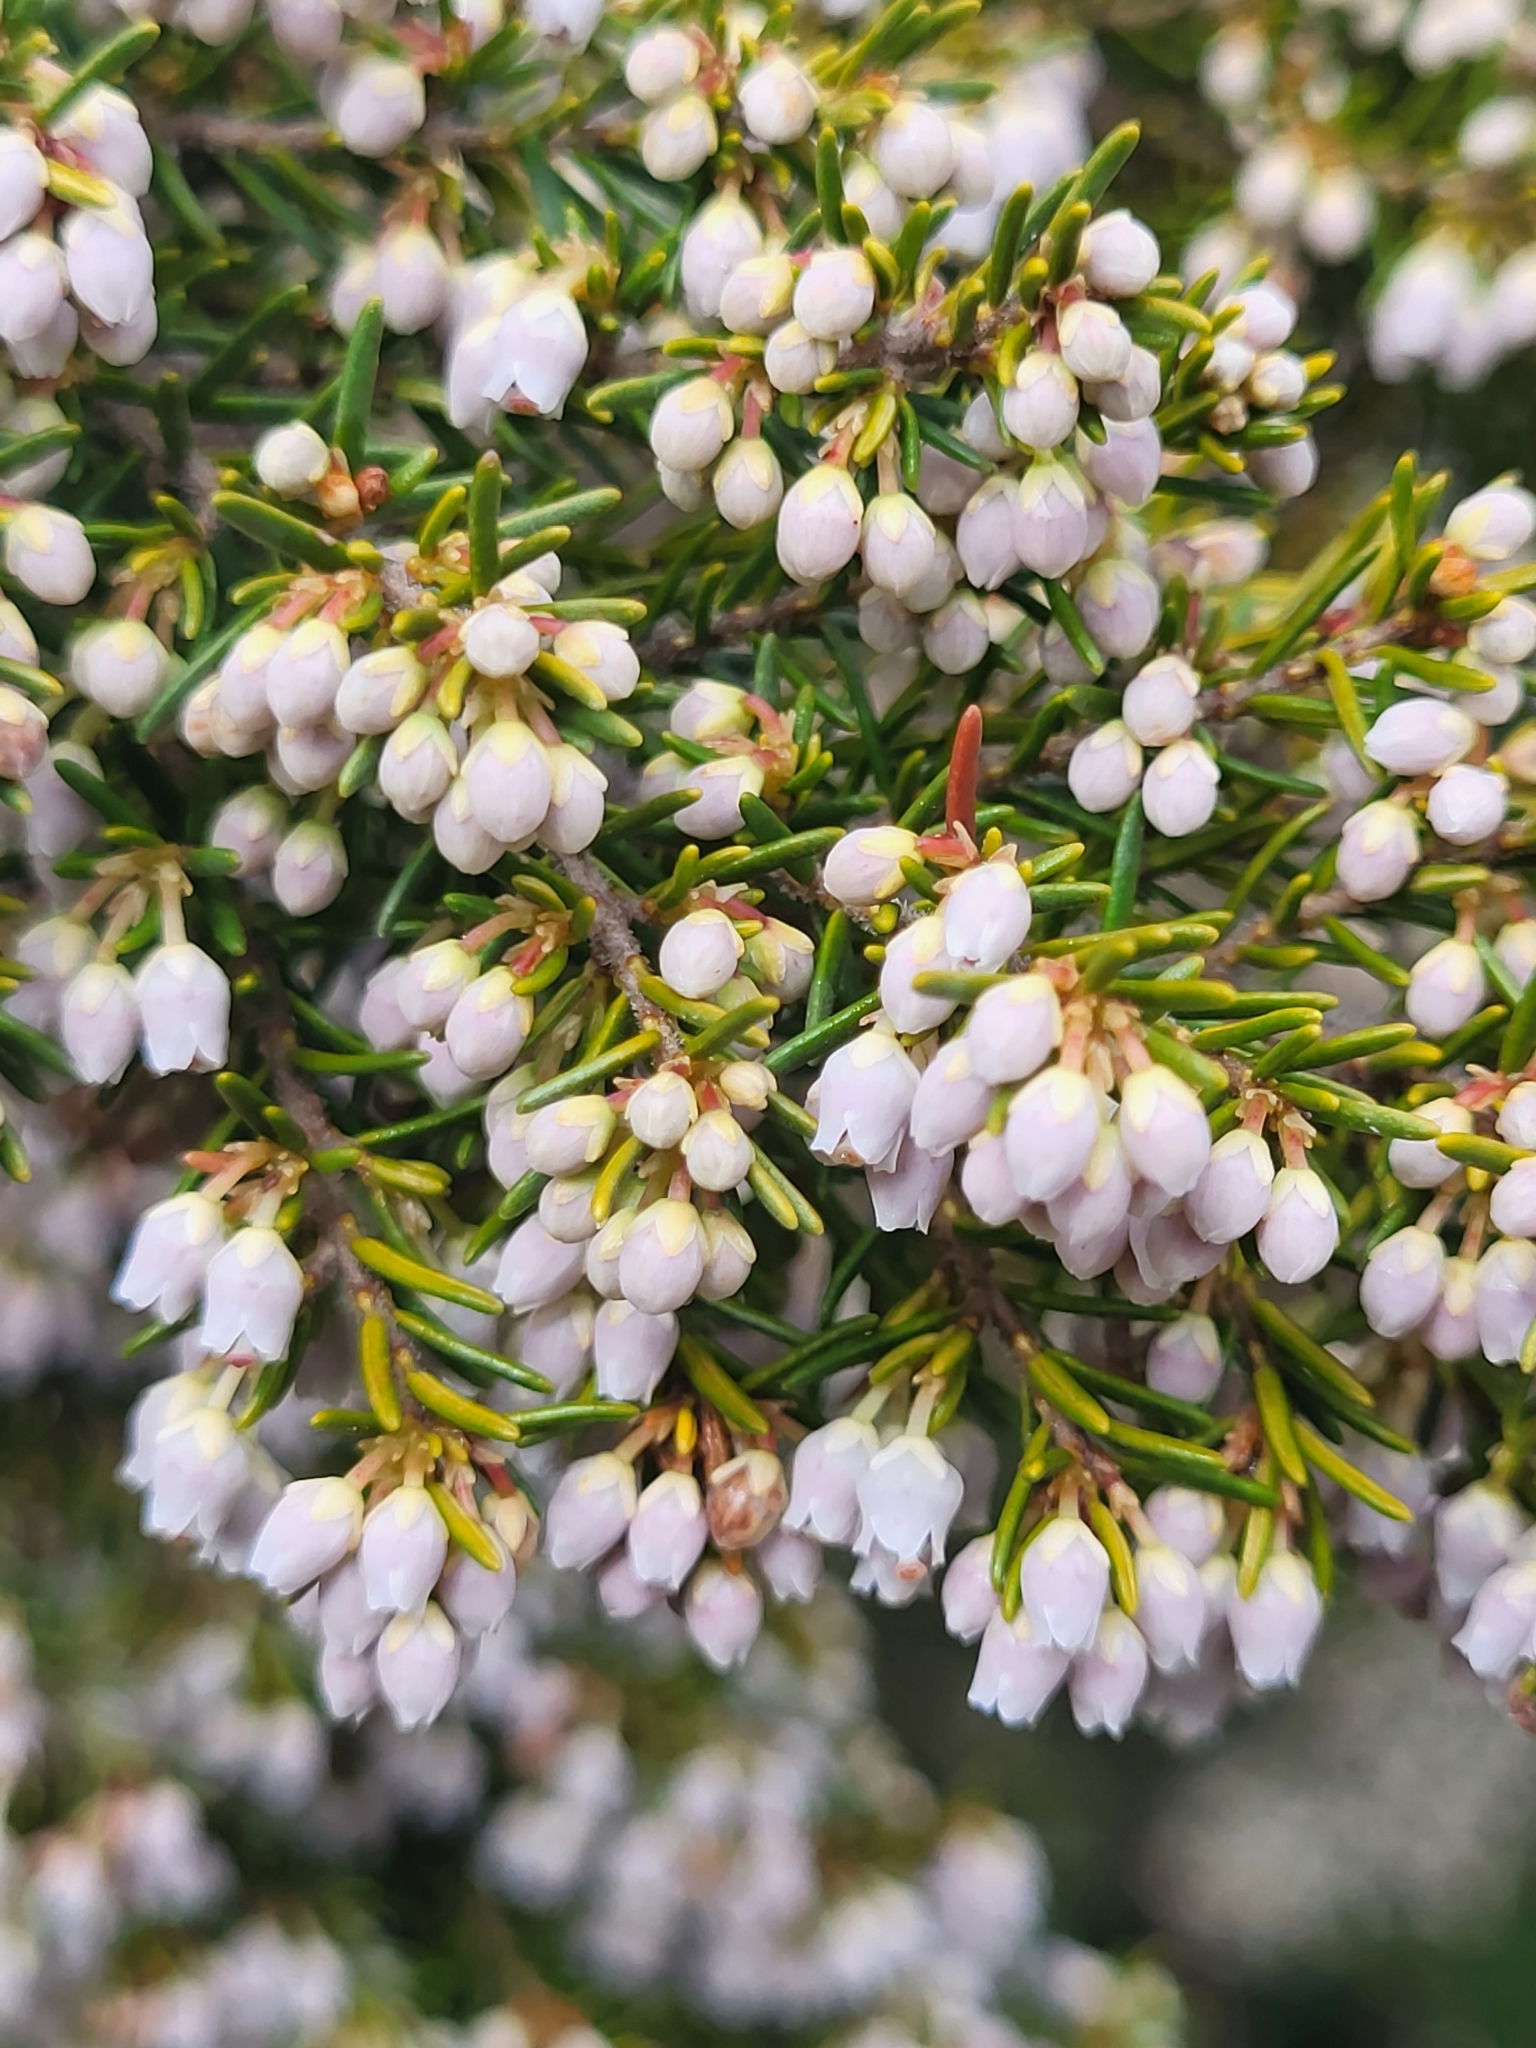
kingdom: Plantae
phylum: Tracheophyta
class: Magnoliopsida
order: Ericales
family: Ericaceae
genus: Erica
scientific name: Erica canariensis
